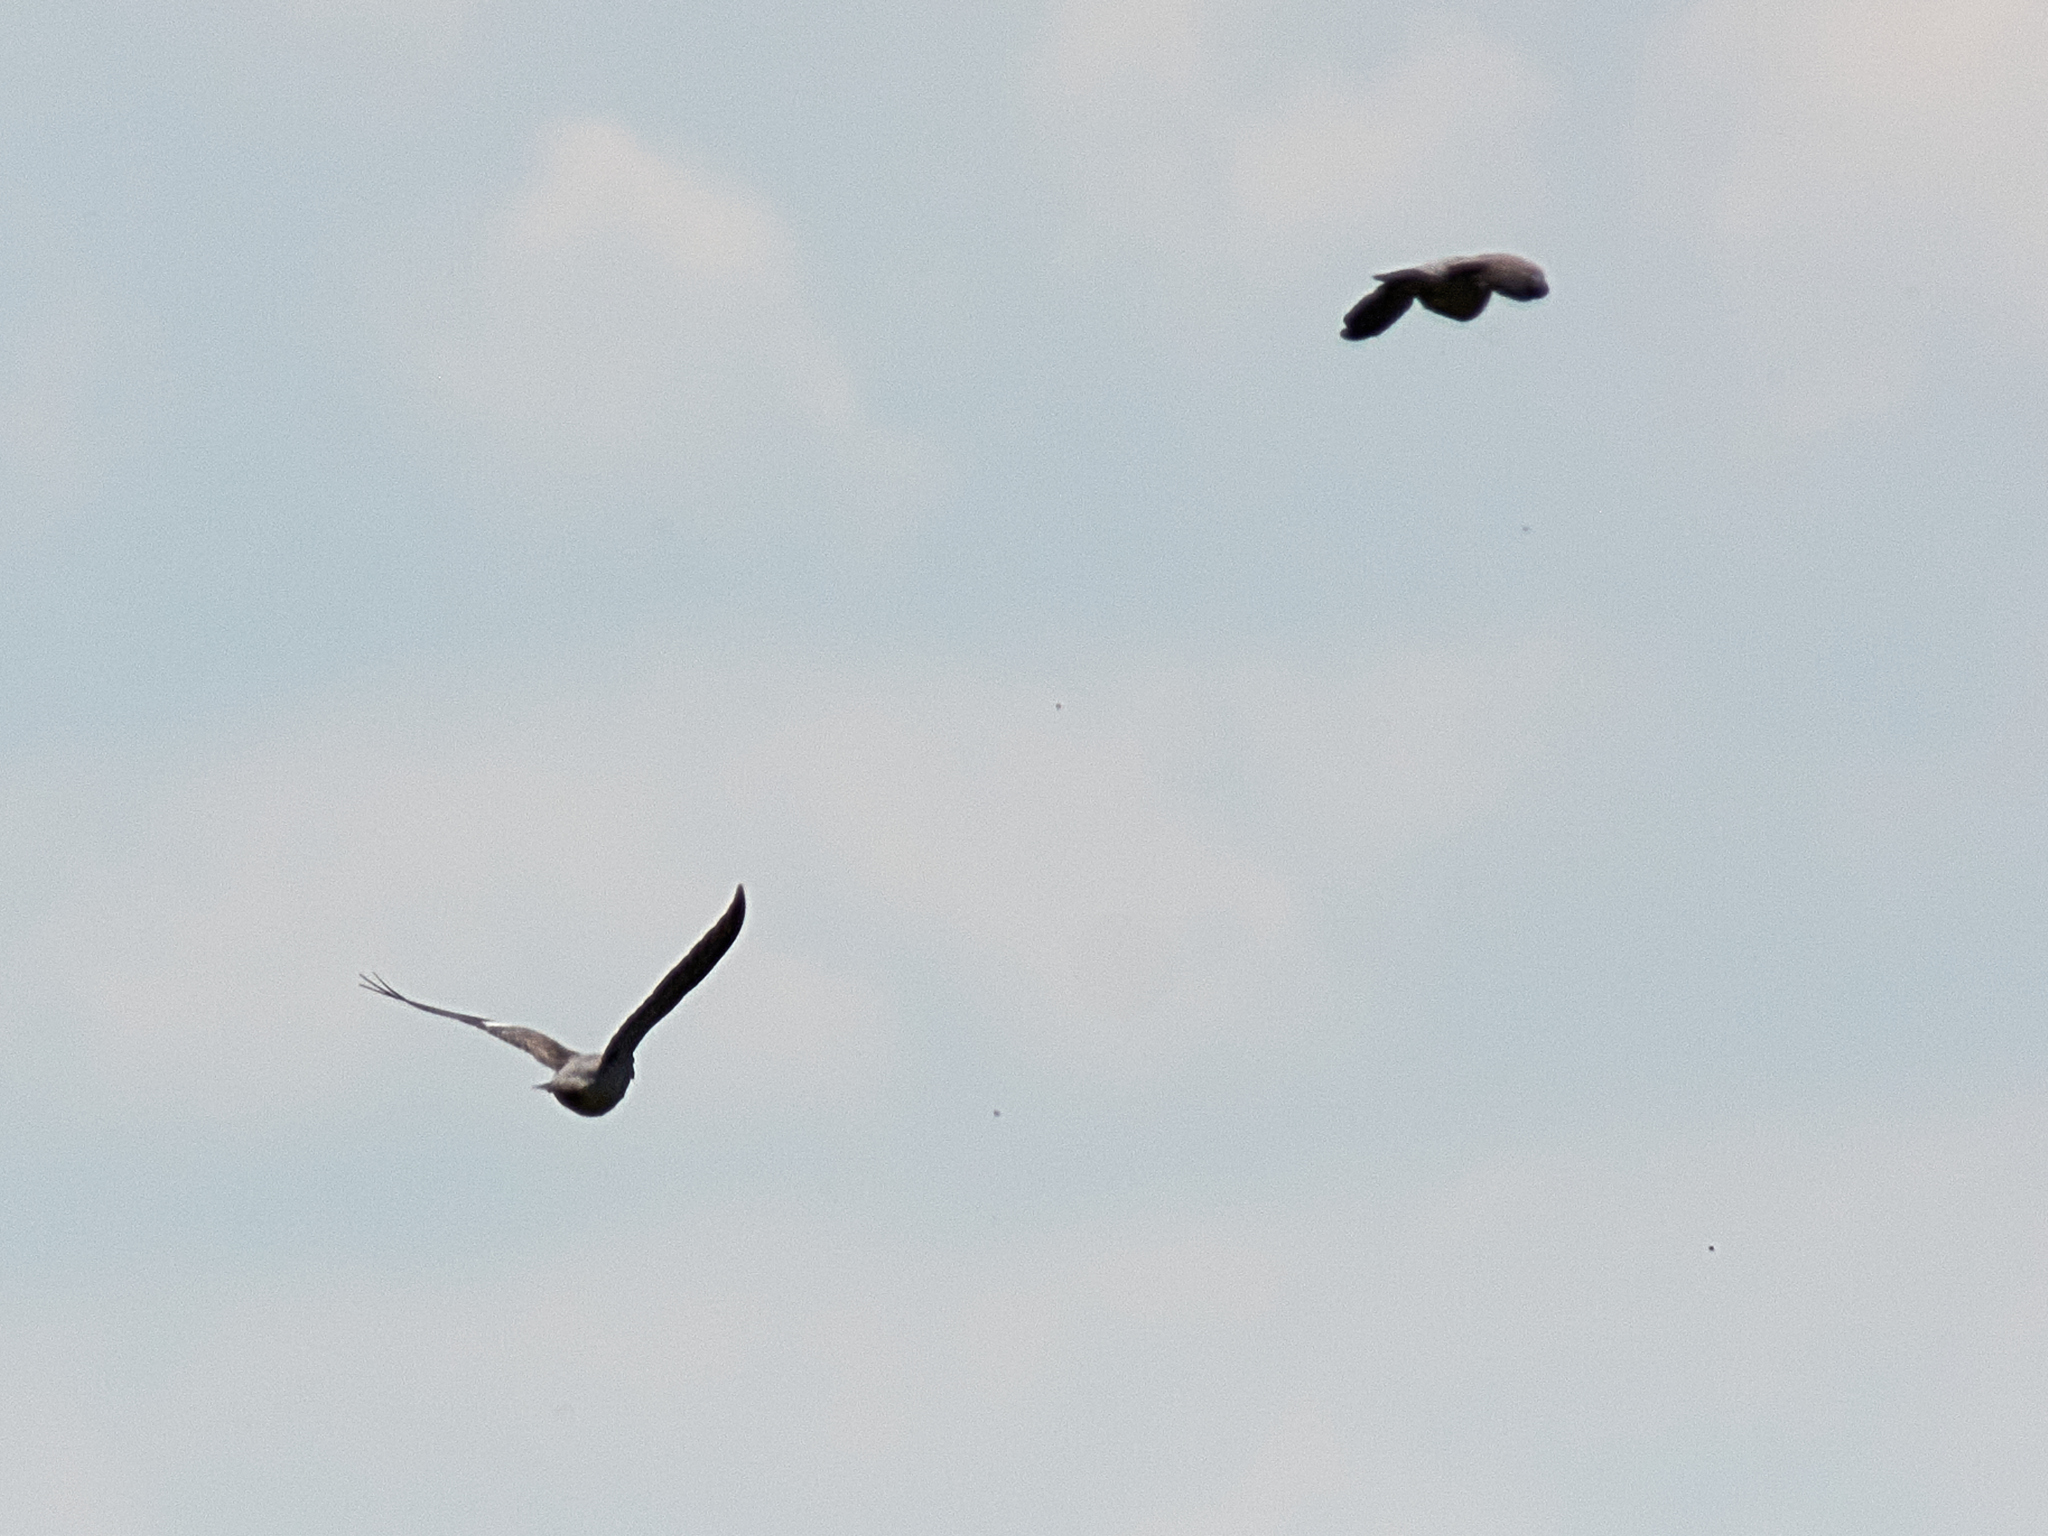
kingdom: Animalia
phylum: Chordata
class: Aves
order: Columbiformes
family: Columbidae
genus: Columba
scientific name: Columba palumbus
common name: Common wood pigeon
